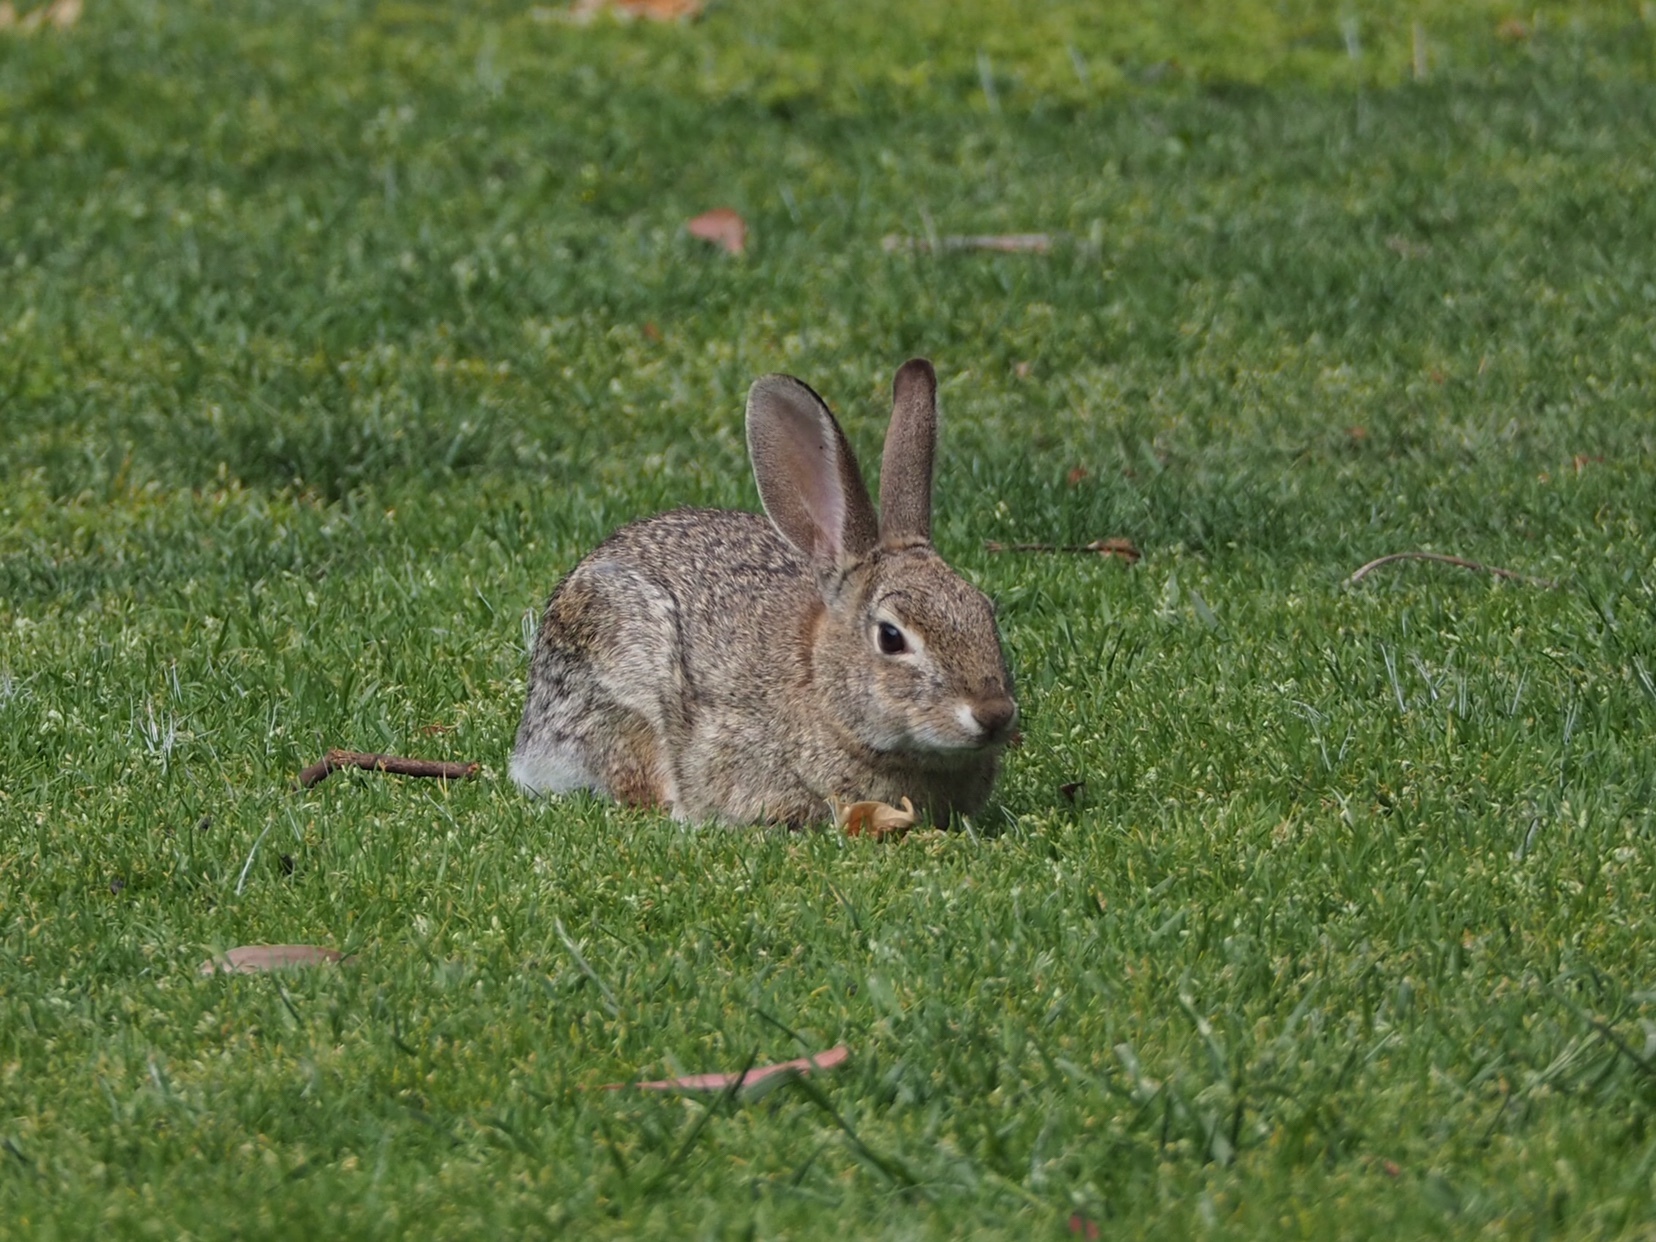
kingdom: Animalia
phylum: Chordata
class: Mammalia
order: Lagomorpha
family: Leporidae
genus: Sylvilagus
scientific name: Sylvilagus audubonii
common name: Desert cottontail
